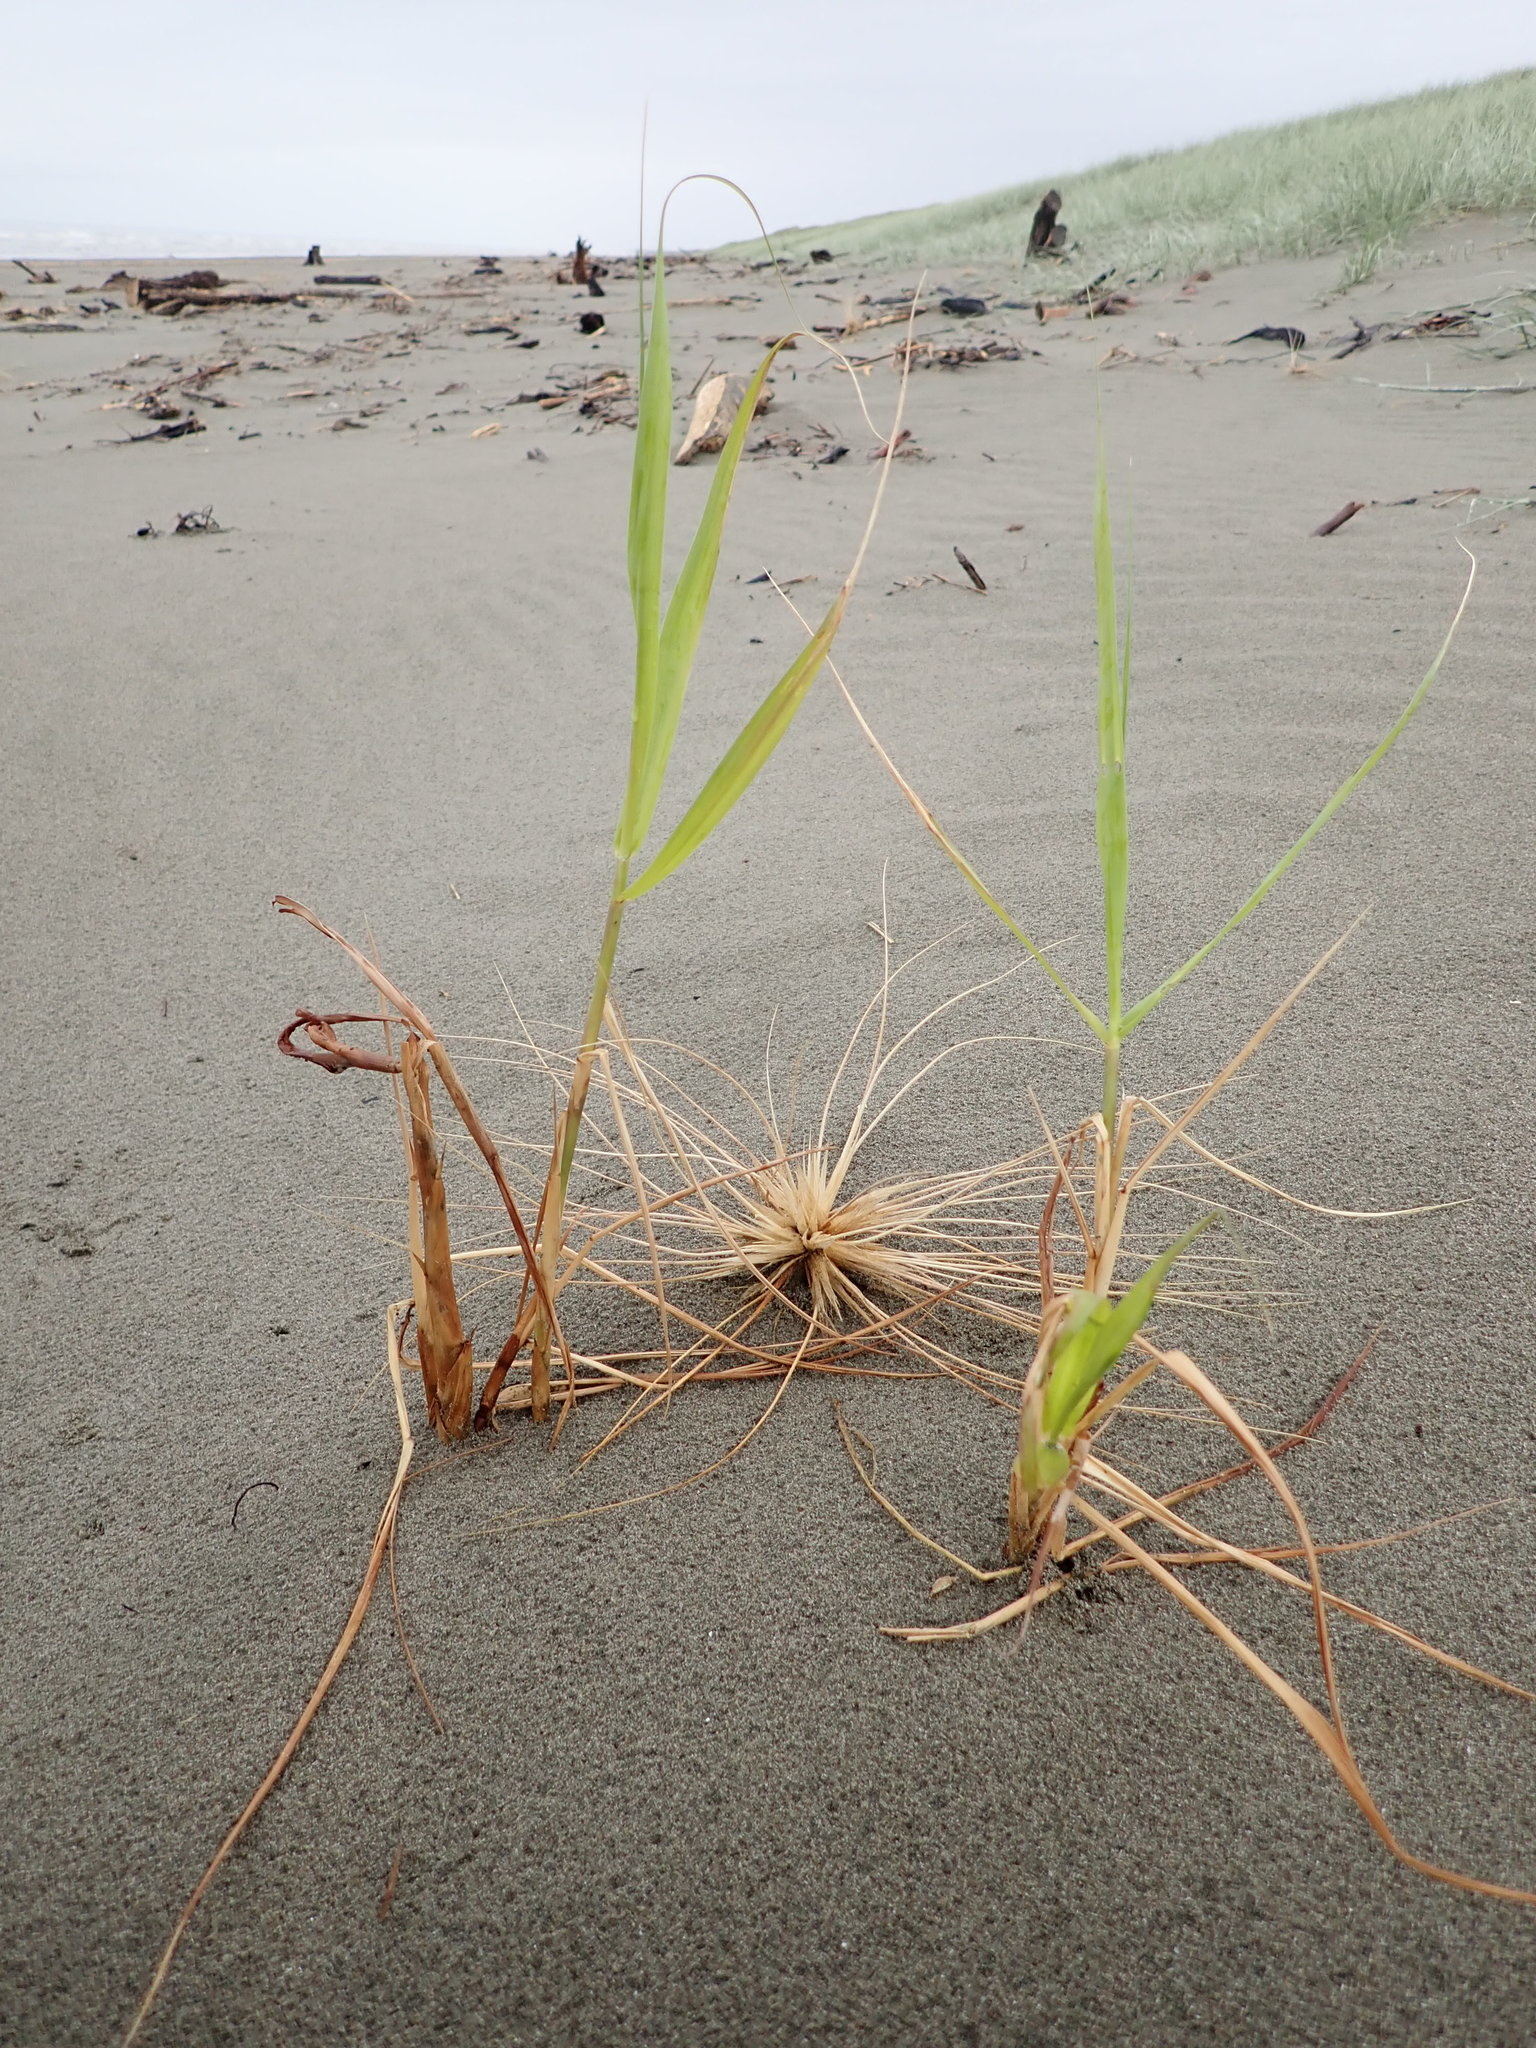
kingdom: Plantae
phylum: Tracheophyta
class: Liliopsida
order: Poales
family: Poaceae
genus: Phragmites
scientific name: Phragmites karka
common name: Tropical reed
